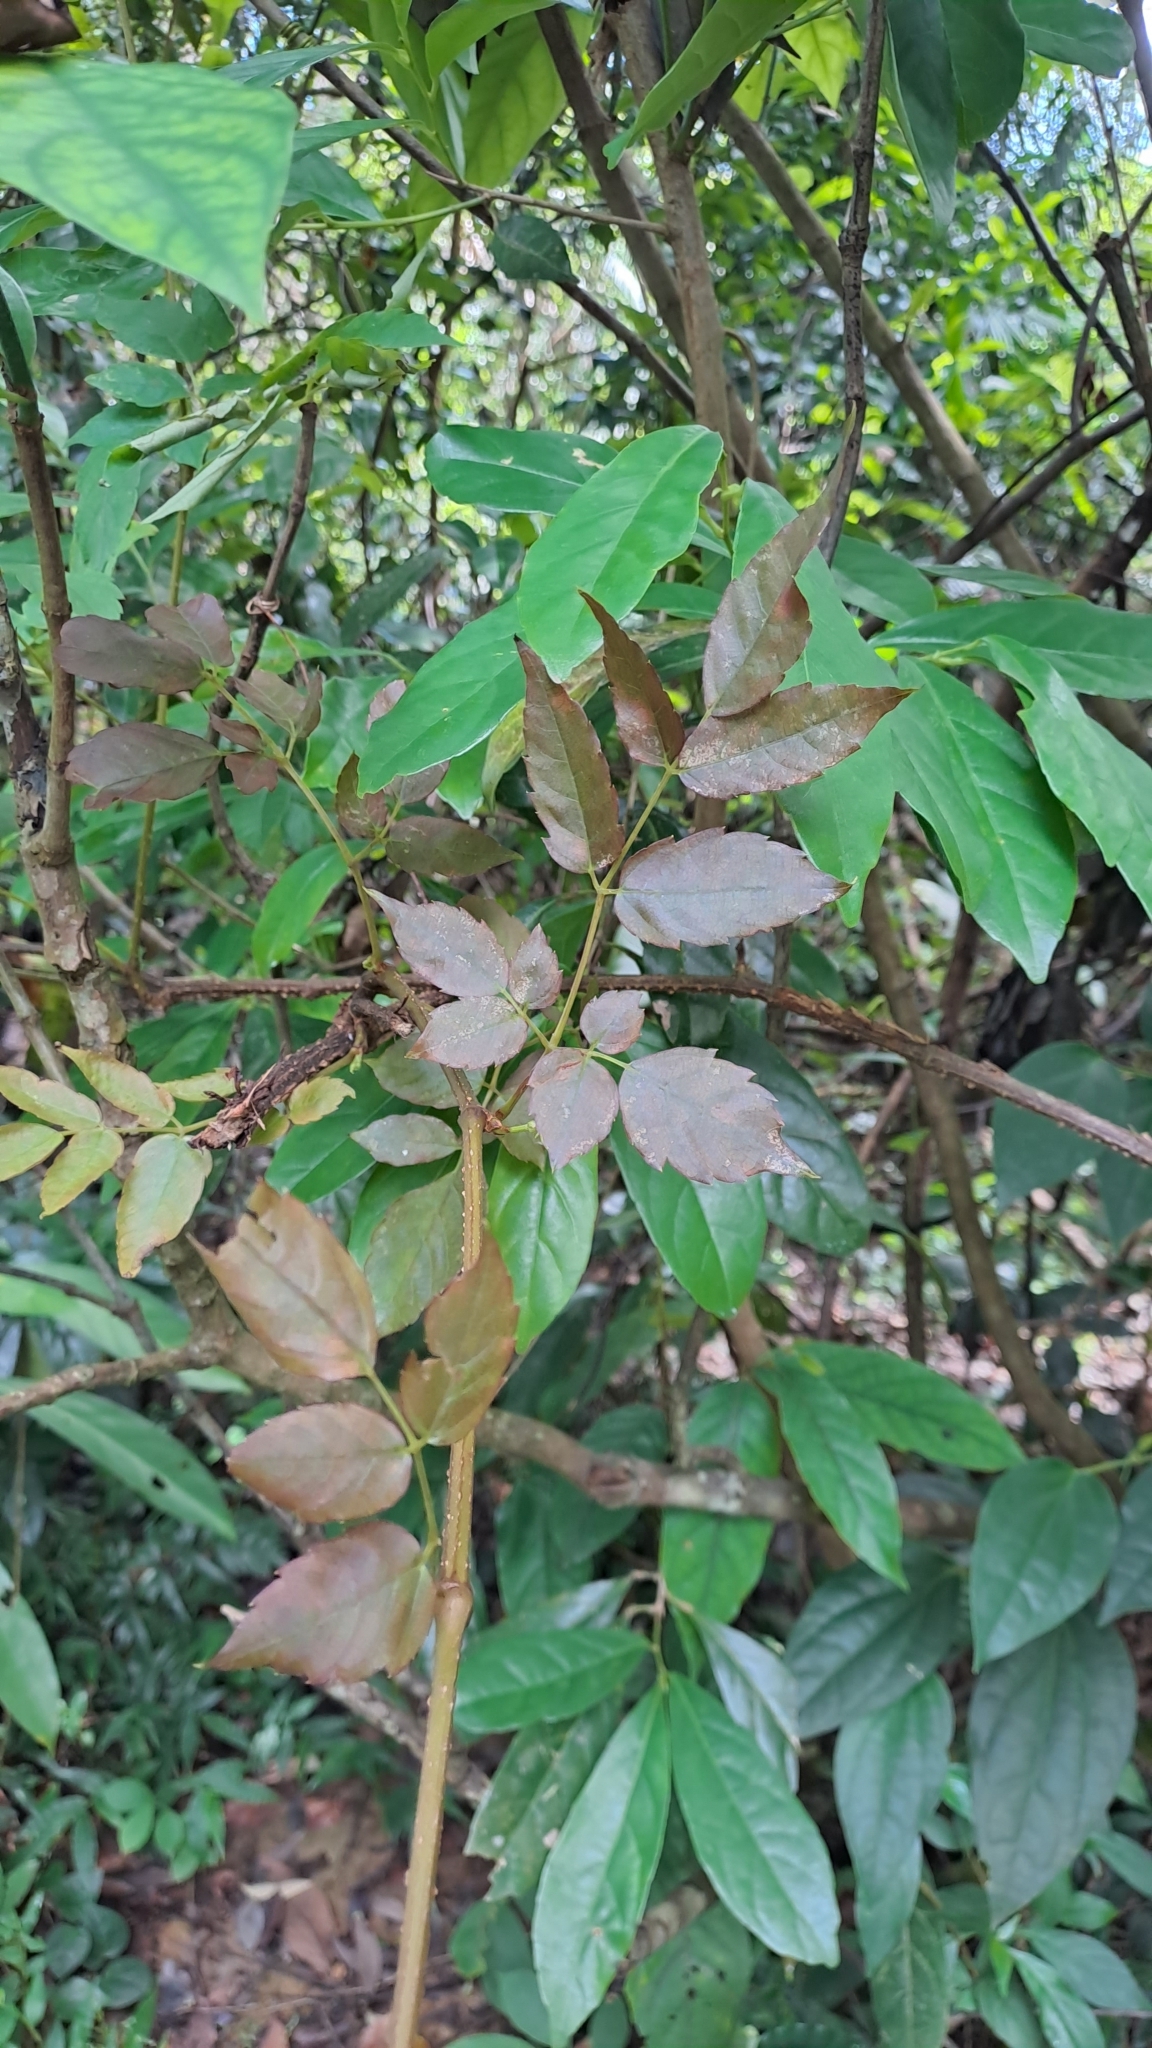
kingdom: Plantae
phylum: Tracheophyta
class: Magnoliopsida
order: Vitales
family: Vitaceae
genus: Nekemias
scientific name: Nekemias cantoniensis
